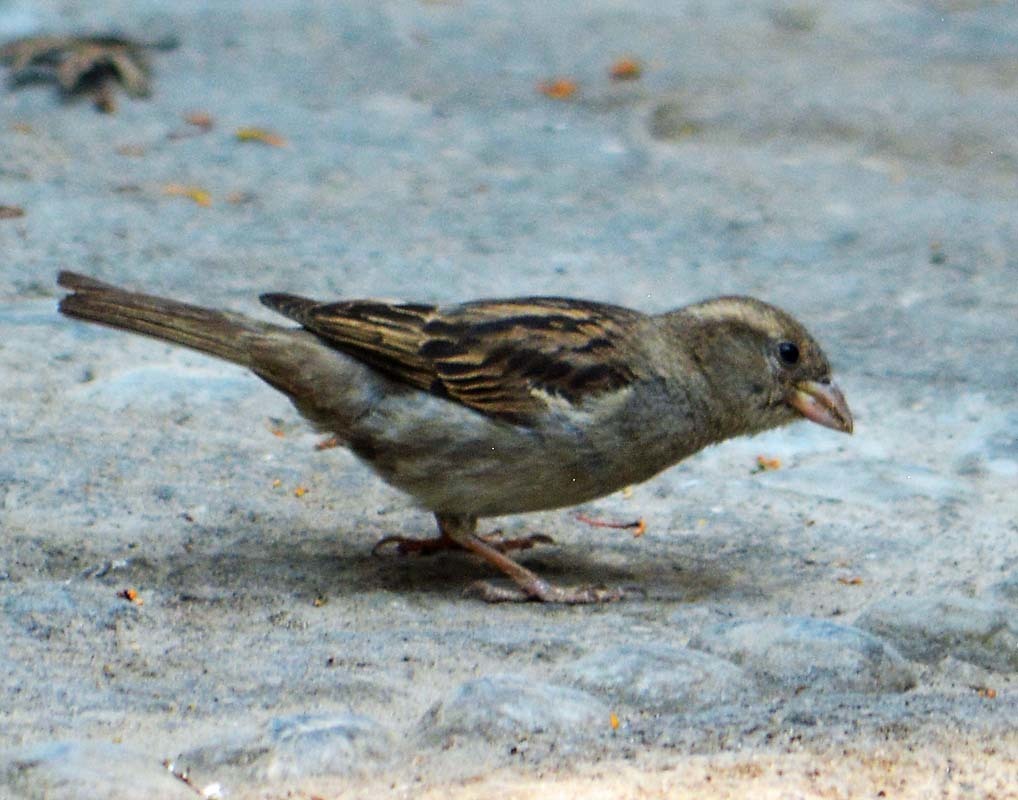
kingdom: Animalia
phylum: Chordata
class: Aves
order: Passeriformes
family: Passeridae
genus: Passer
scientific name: Passer domesticus
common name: House sparrow
